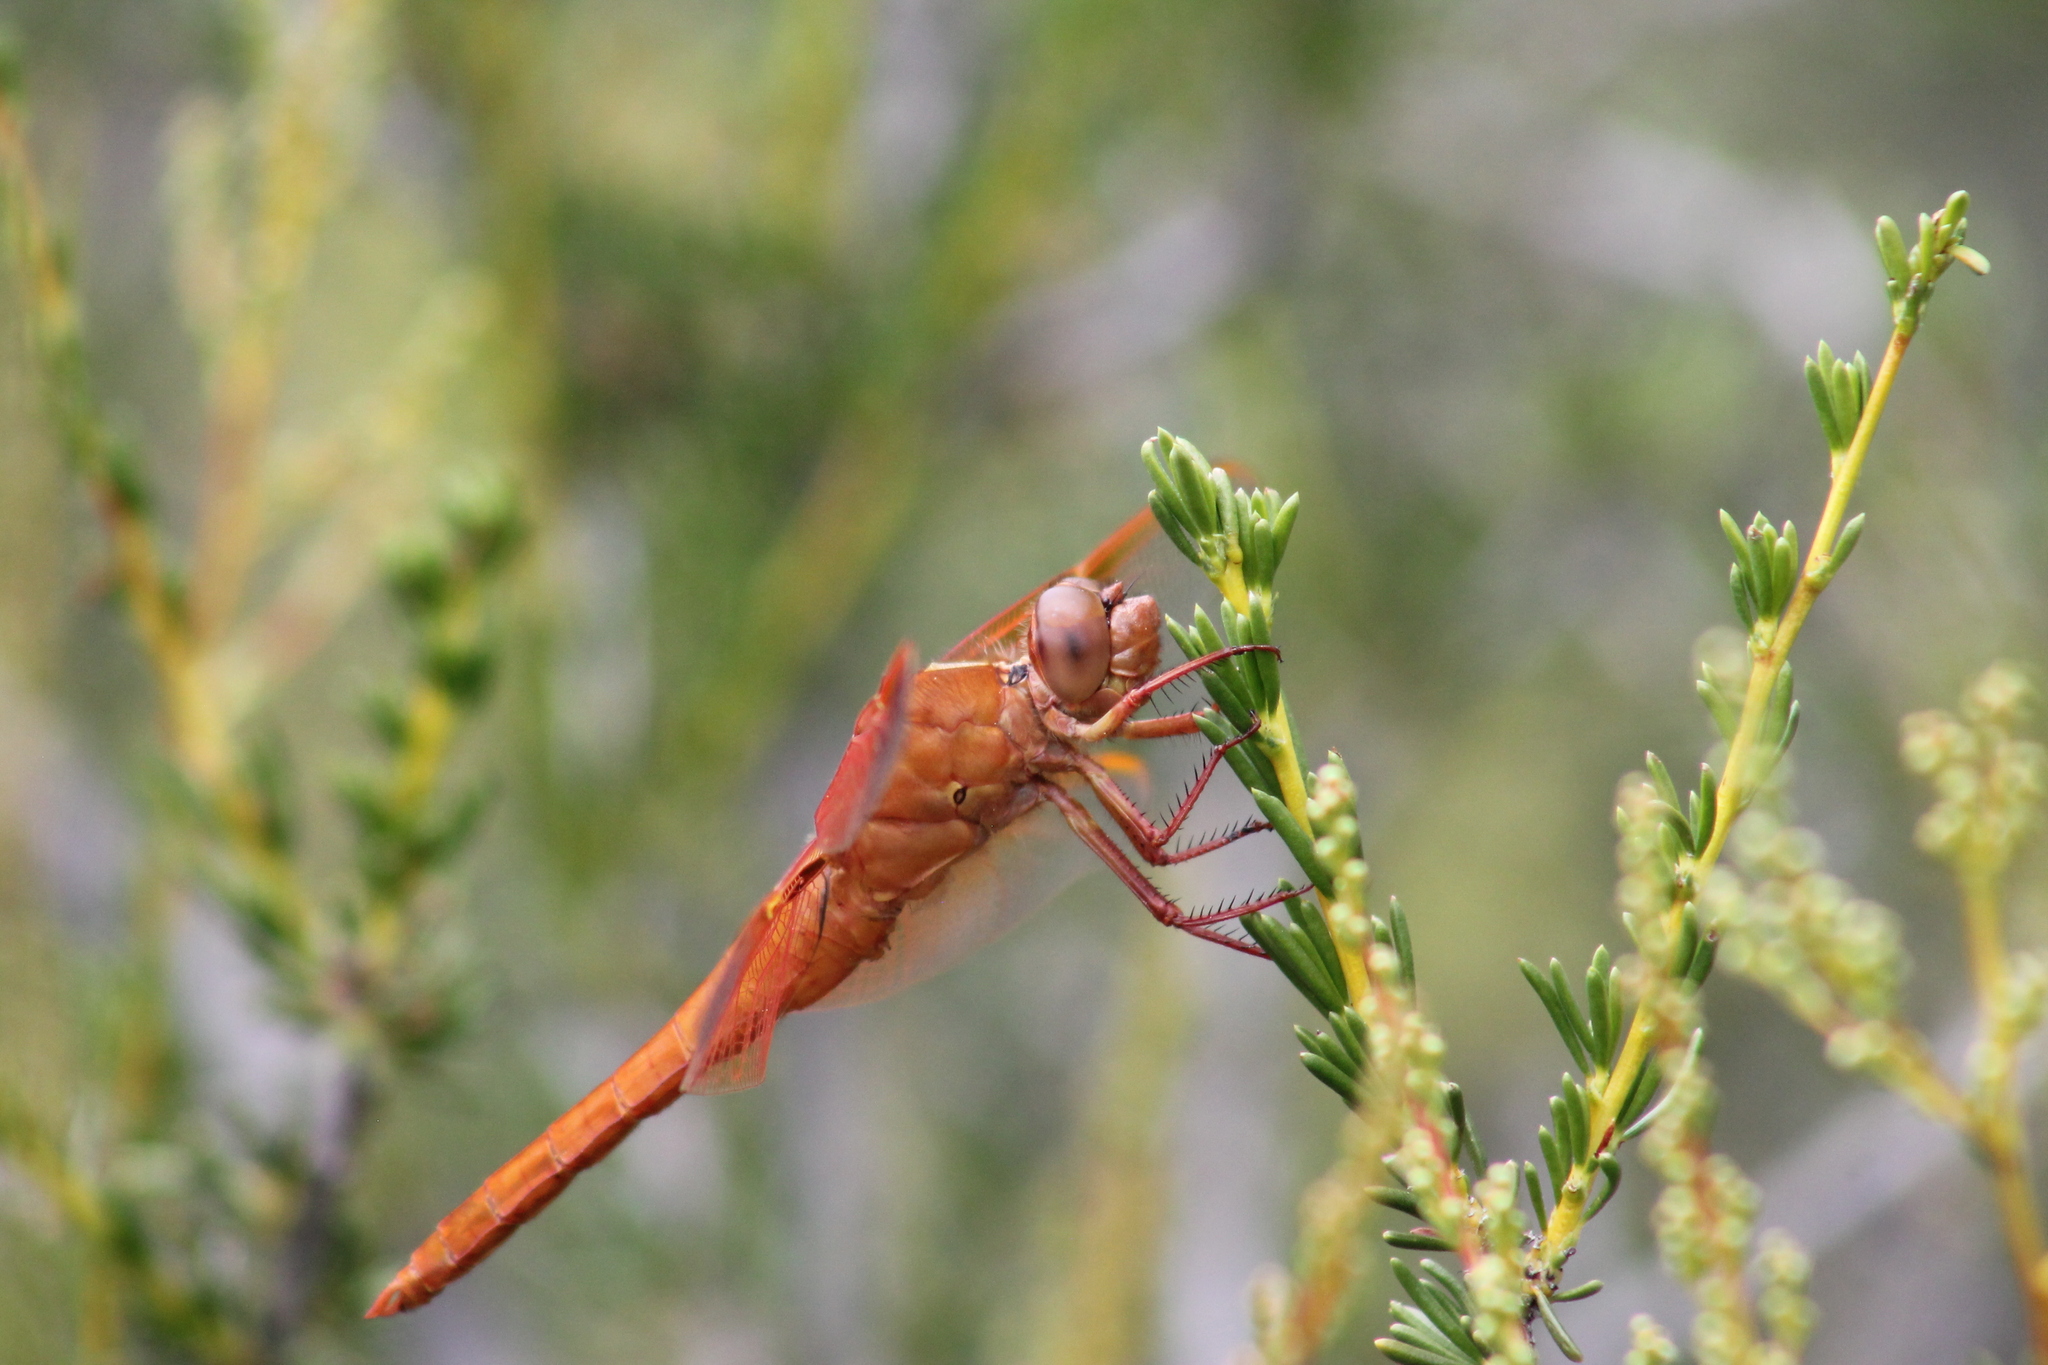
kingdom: Animalia
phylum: Arthropoda
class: Insecta
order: Odonata
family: Libellulidae
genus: Libellula
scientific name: Libellula saturata
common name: Flame skimmer
